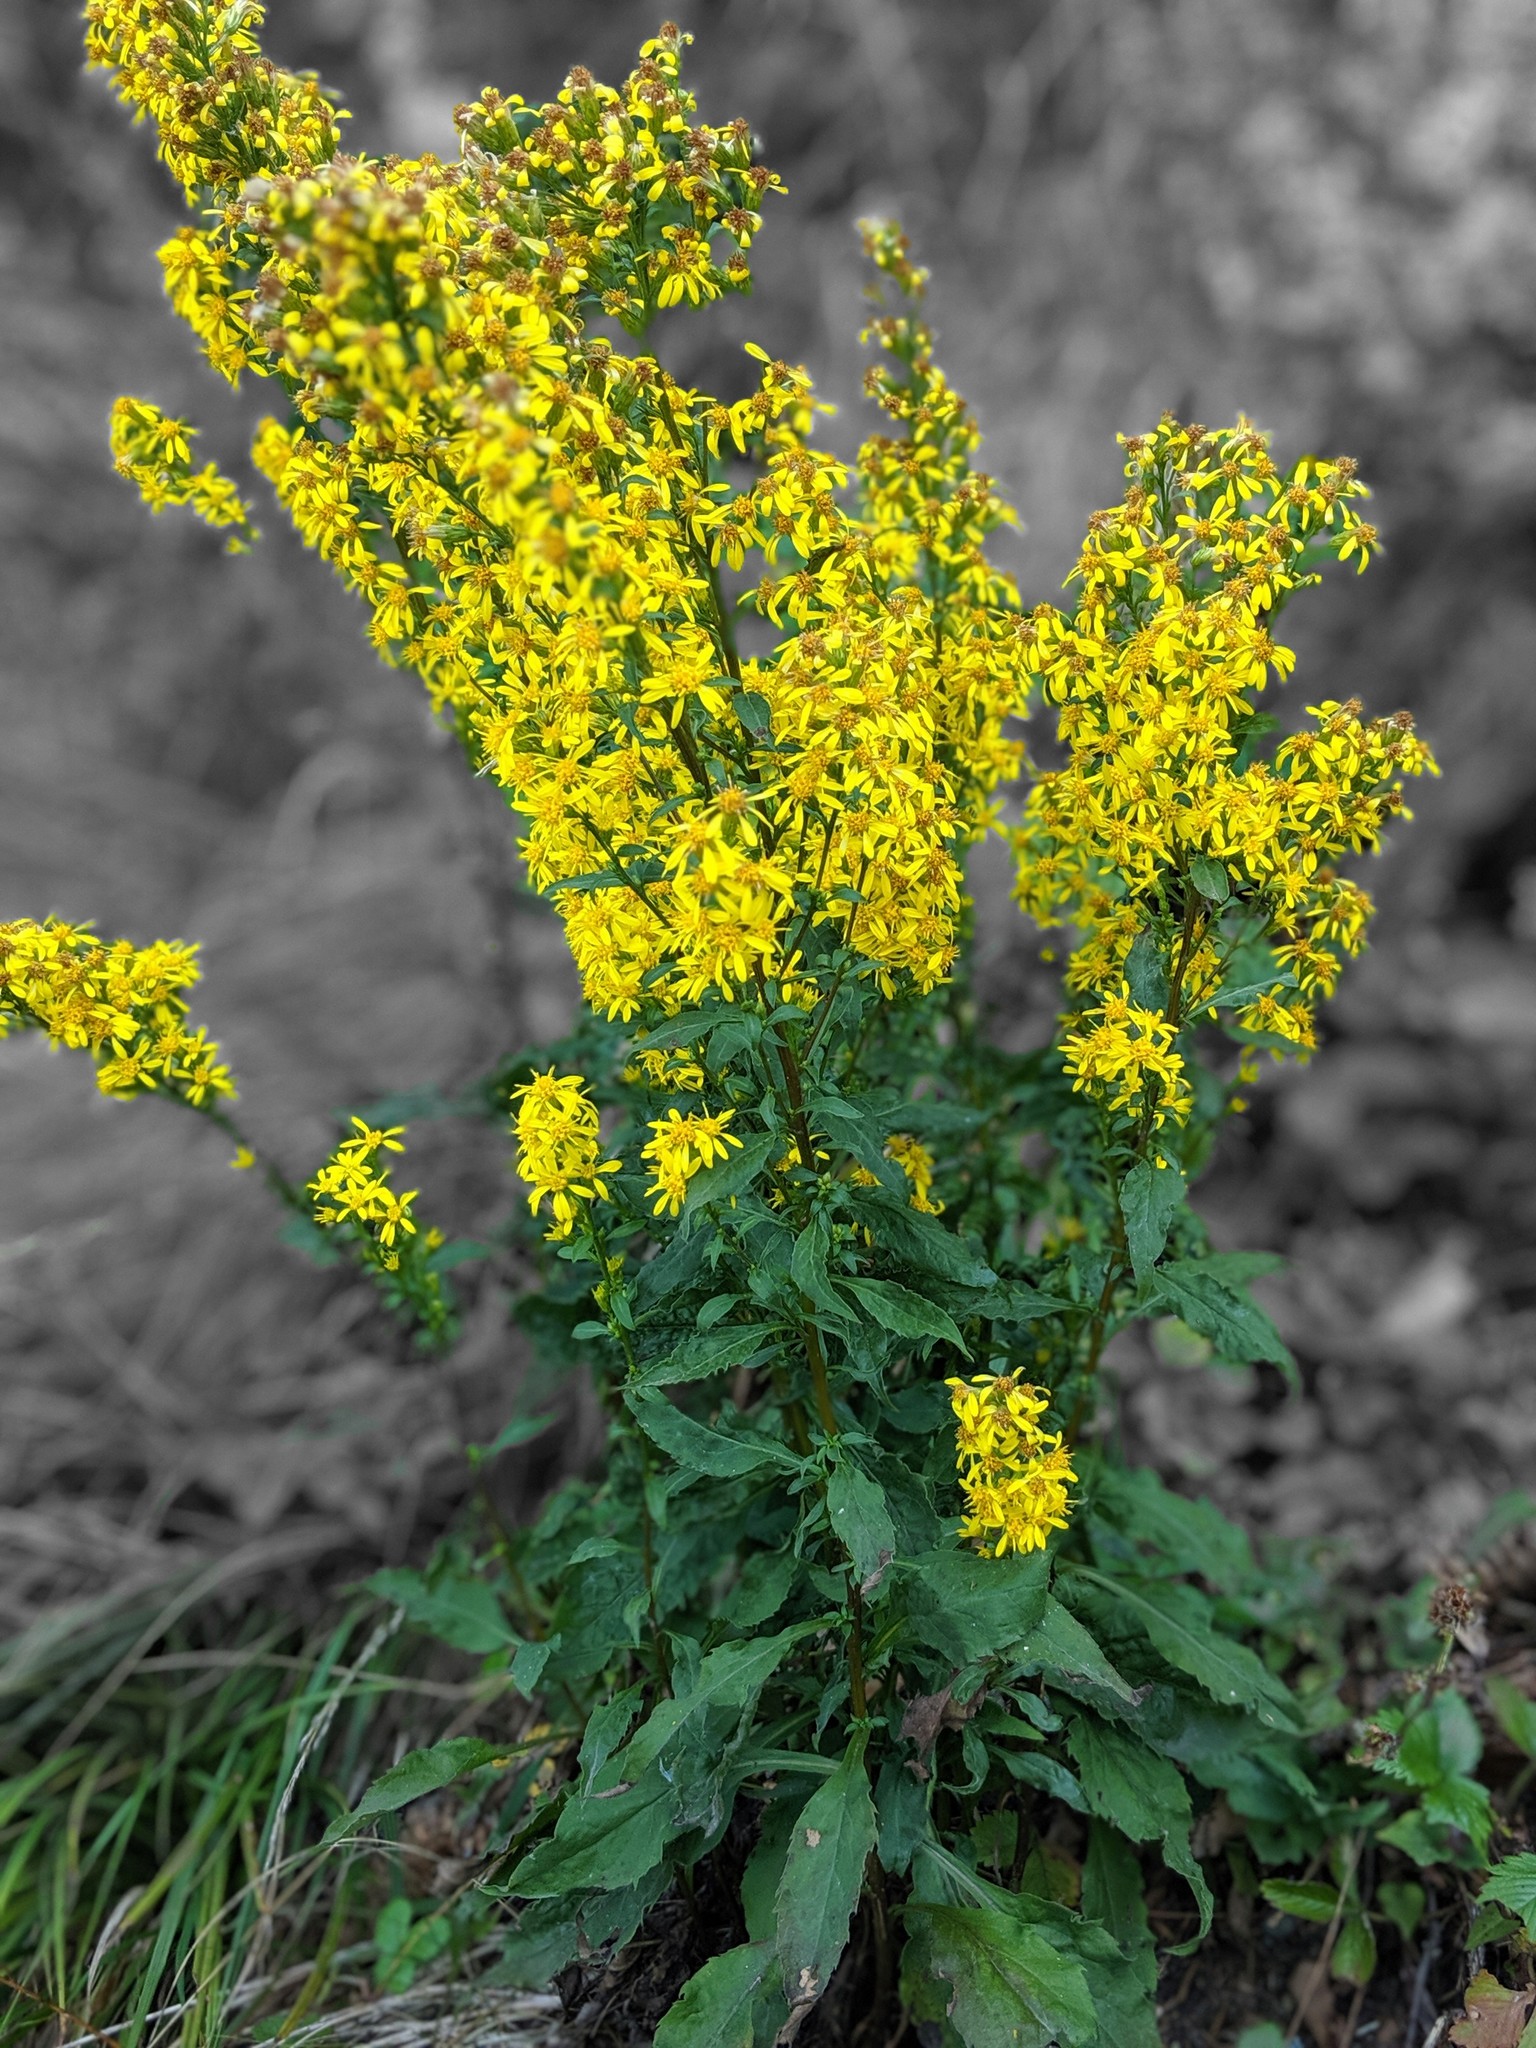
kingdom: Plantae
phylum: Tracheophyta
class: Magnoliopsida
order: Asterales
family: Asteraceae
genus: Solidago
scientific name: Solidago virgaurea
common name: Goldenrod
